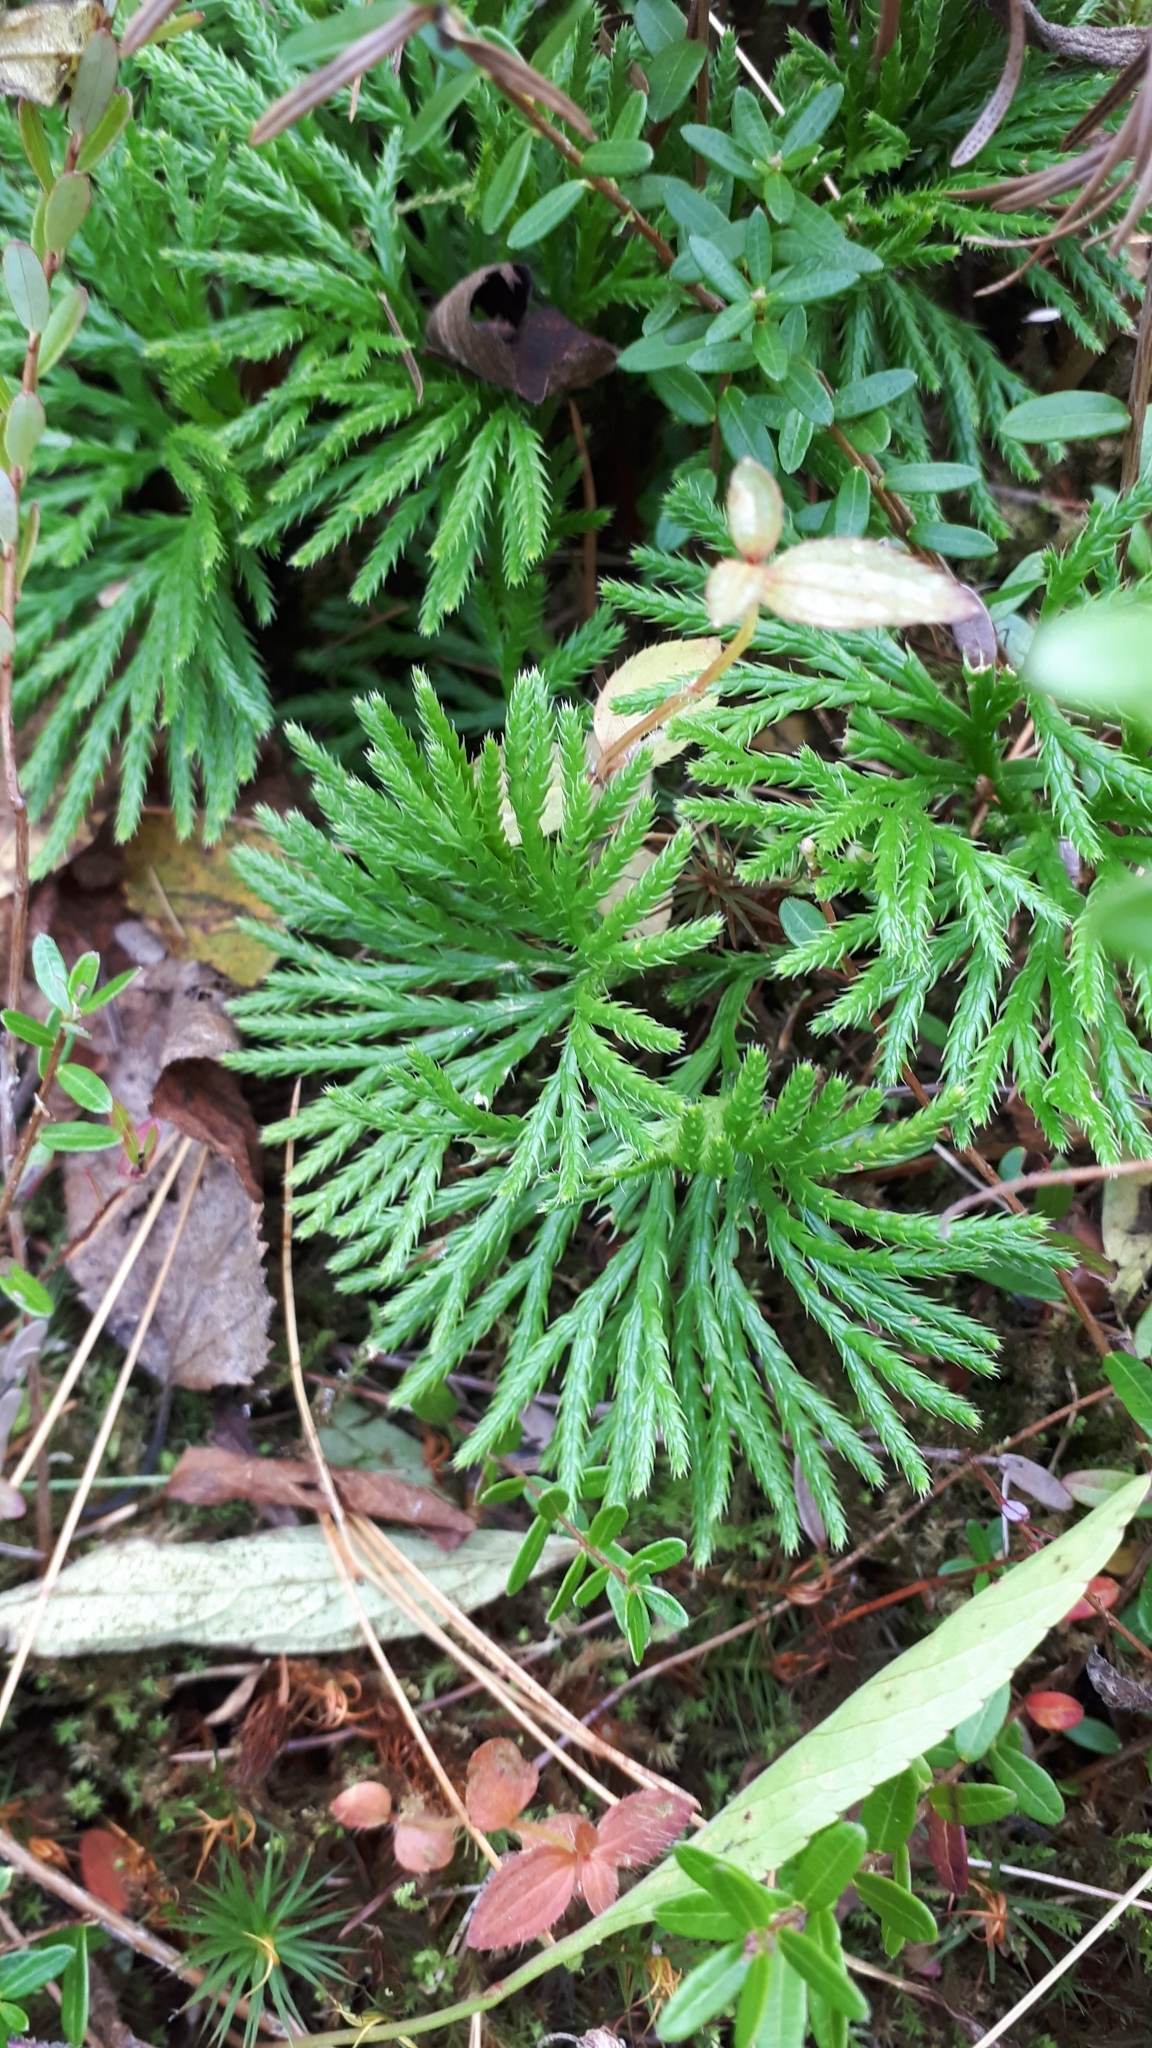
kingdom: Plantae
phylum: Tracheophyta
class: Lycopodiopsida
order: Lycopodiales
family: Lycopodiaceae
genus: Diphasiastrum
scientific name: Diphasiastrum digitatum
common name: Southern running-pine
